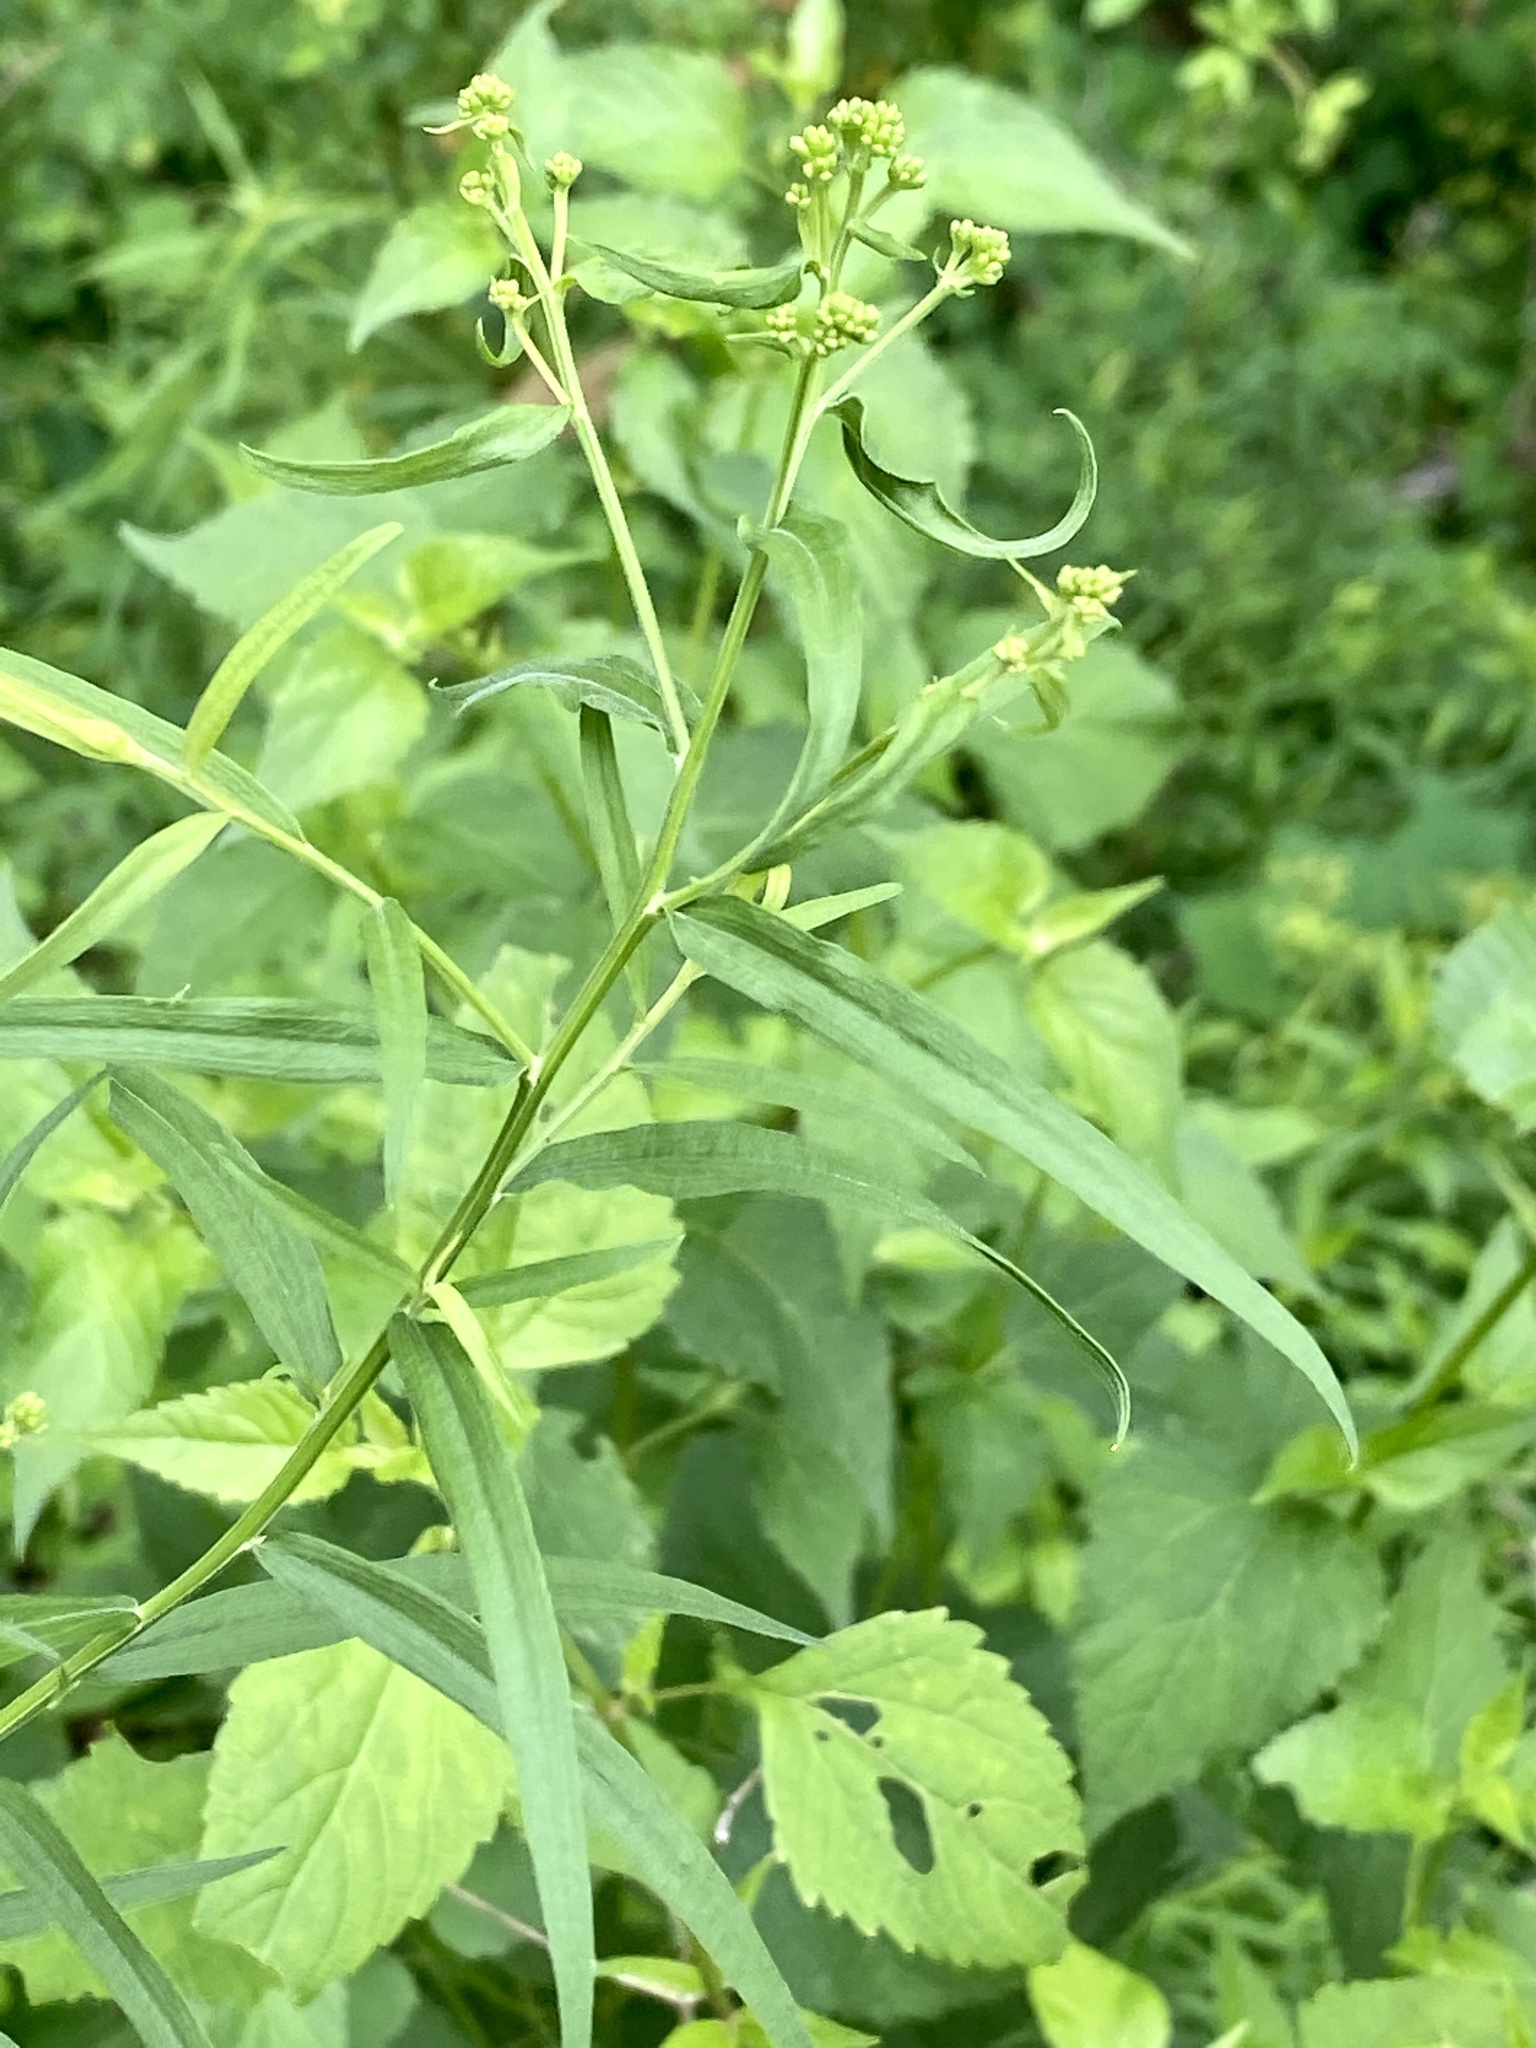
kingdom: Plantae
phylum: Tracheophyta
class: Magnoliopsida
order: Asterales
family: Asteraceae
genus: Euthamia
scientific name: Euthamia graminifolia
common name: Common goldentop
